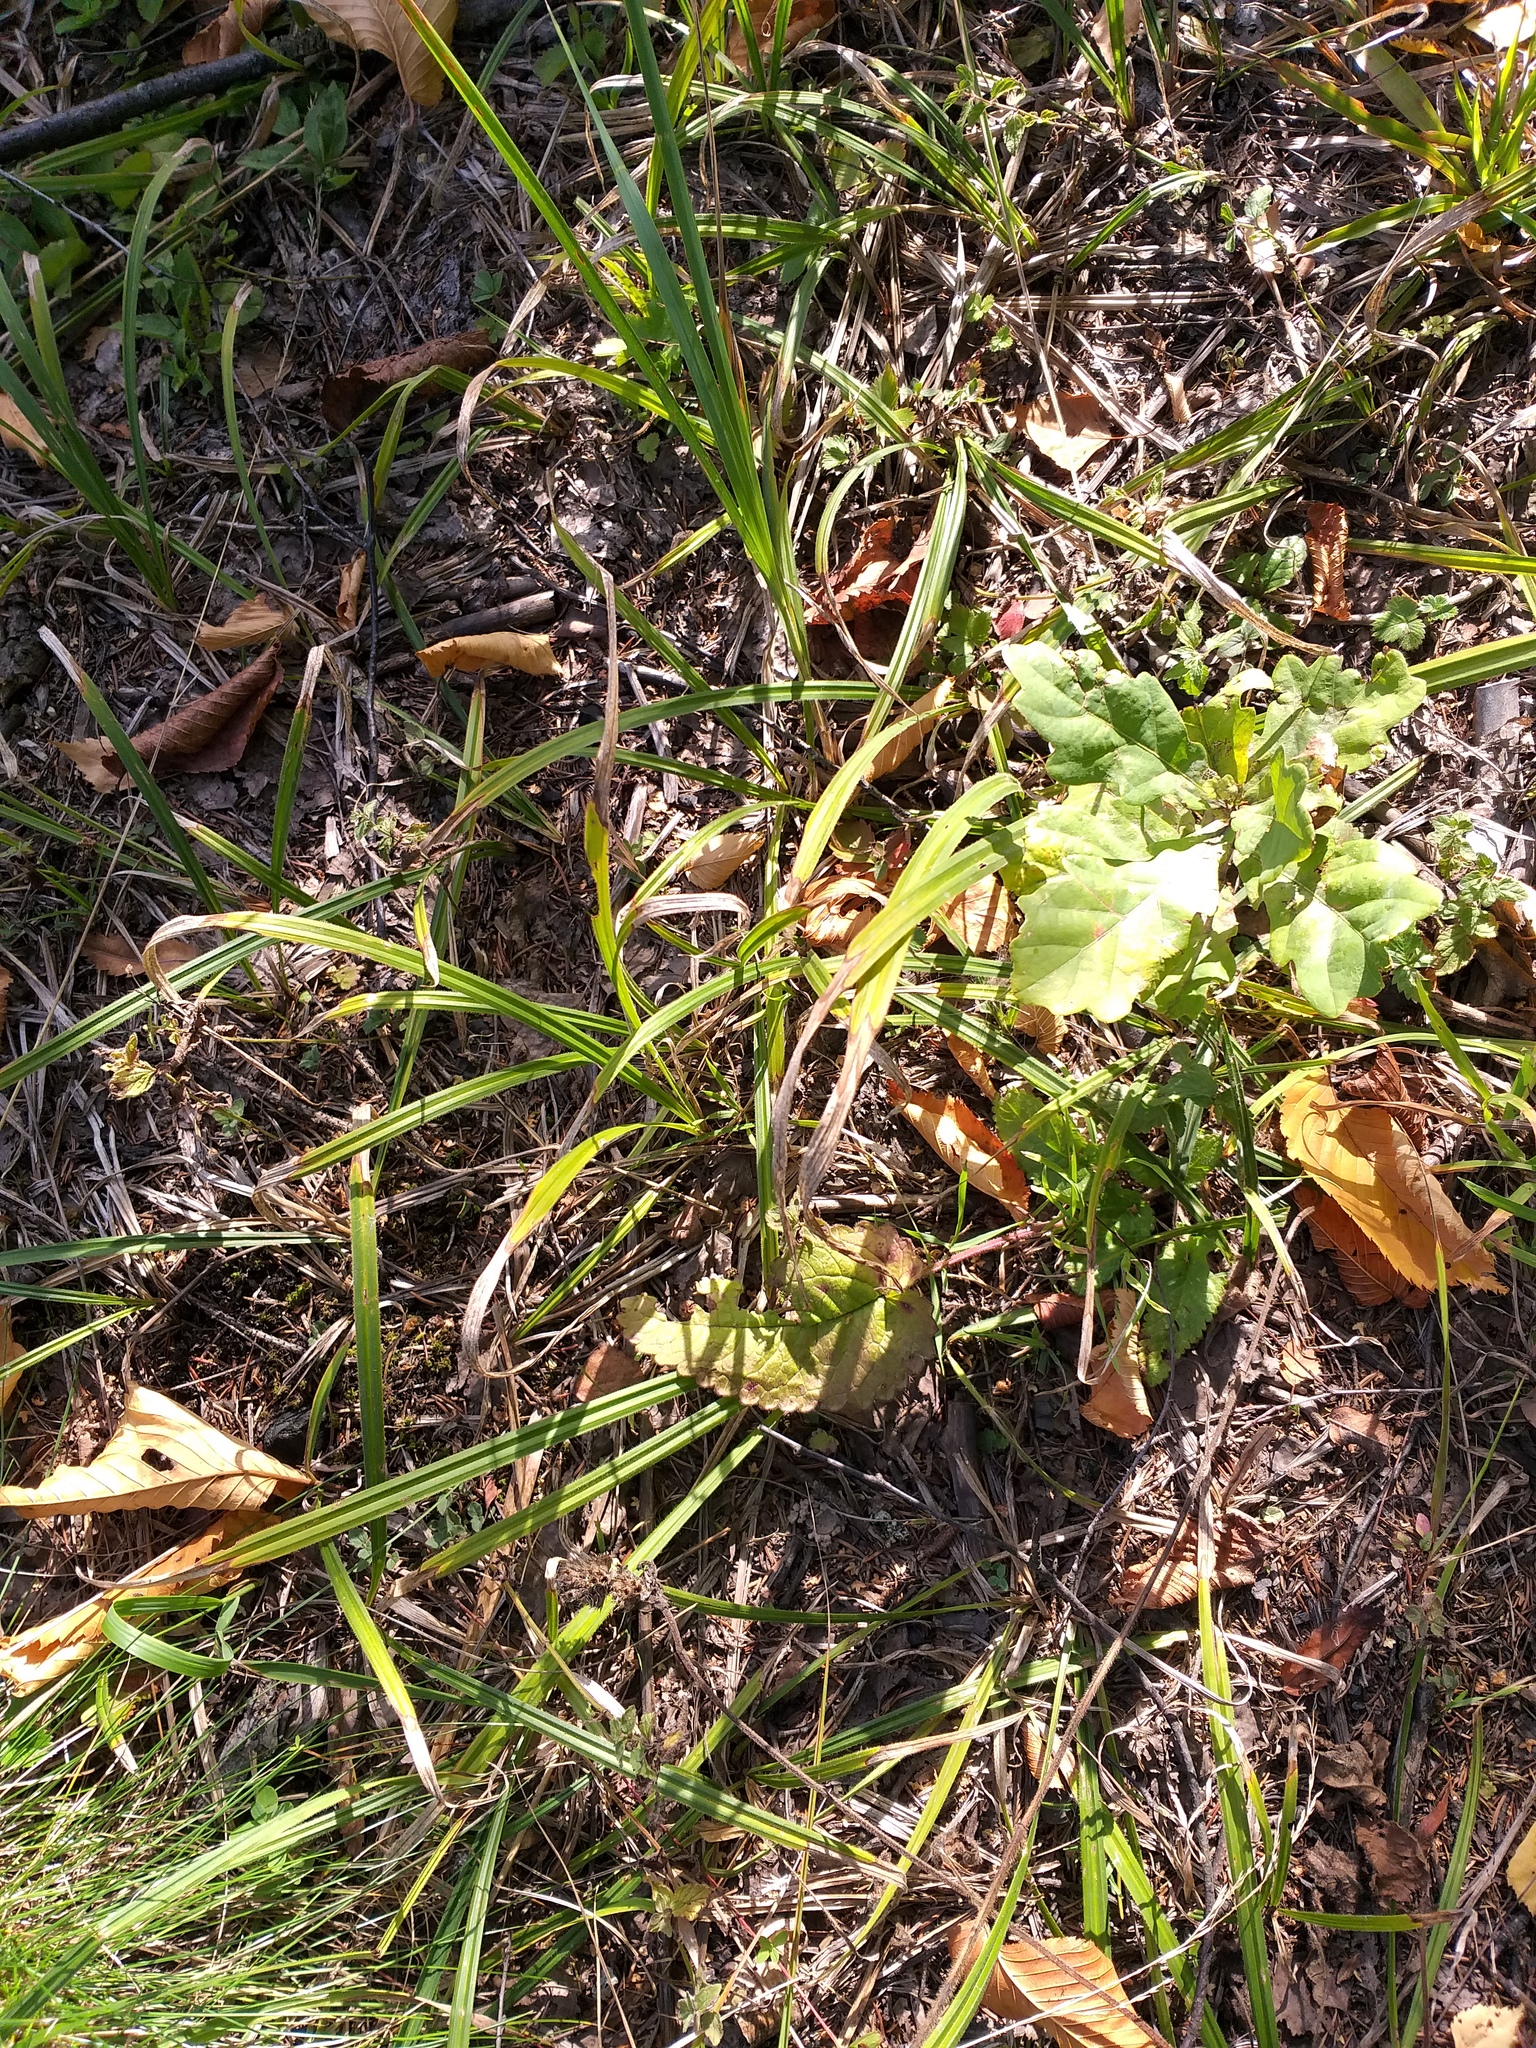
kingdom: Plantae
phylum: Tracheophyta
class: Liliopsida
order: Poales
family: Cyperaceae
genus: Carex
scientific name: Carex pilosa
